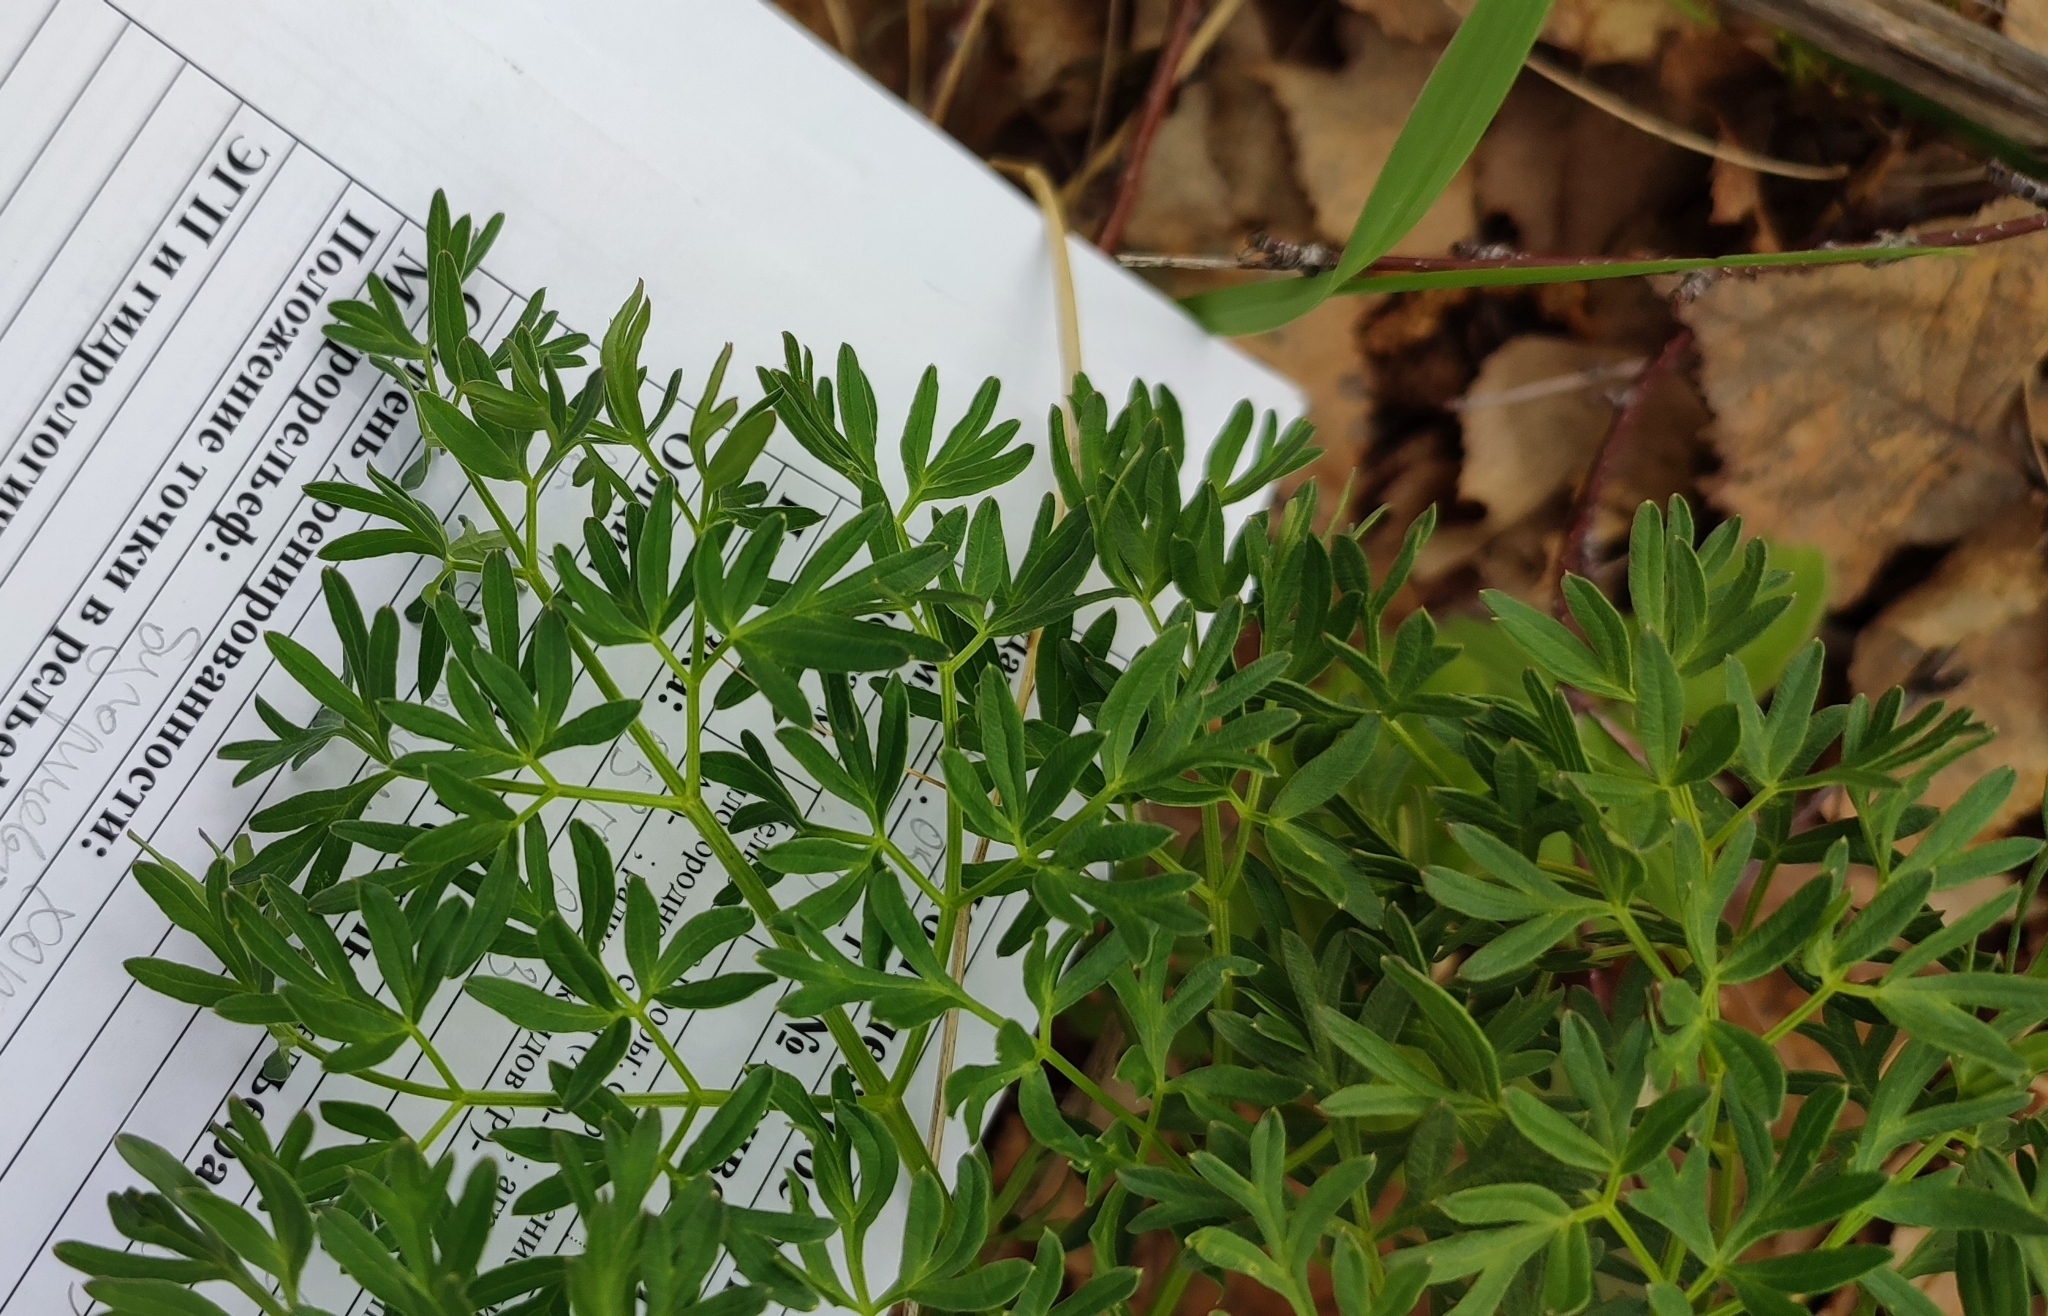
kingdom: Plantae
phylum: Tracheophyta
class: Magnoliopsida
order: Apiales
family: Apiaceae
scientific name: Apiaceae
